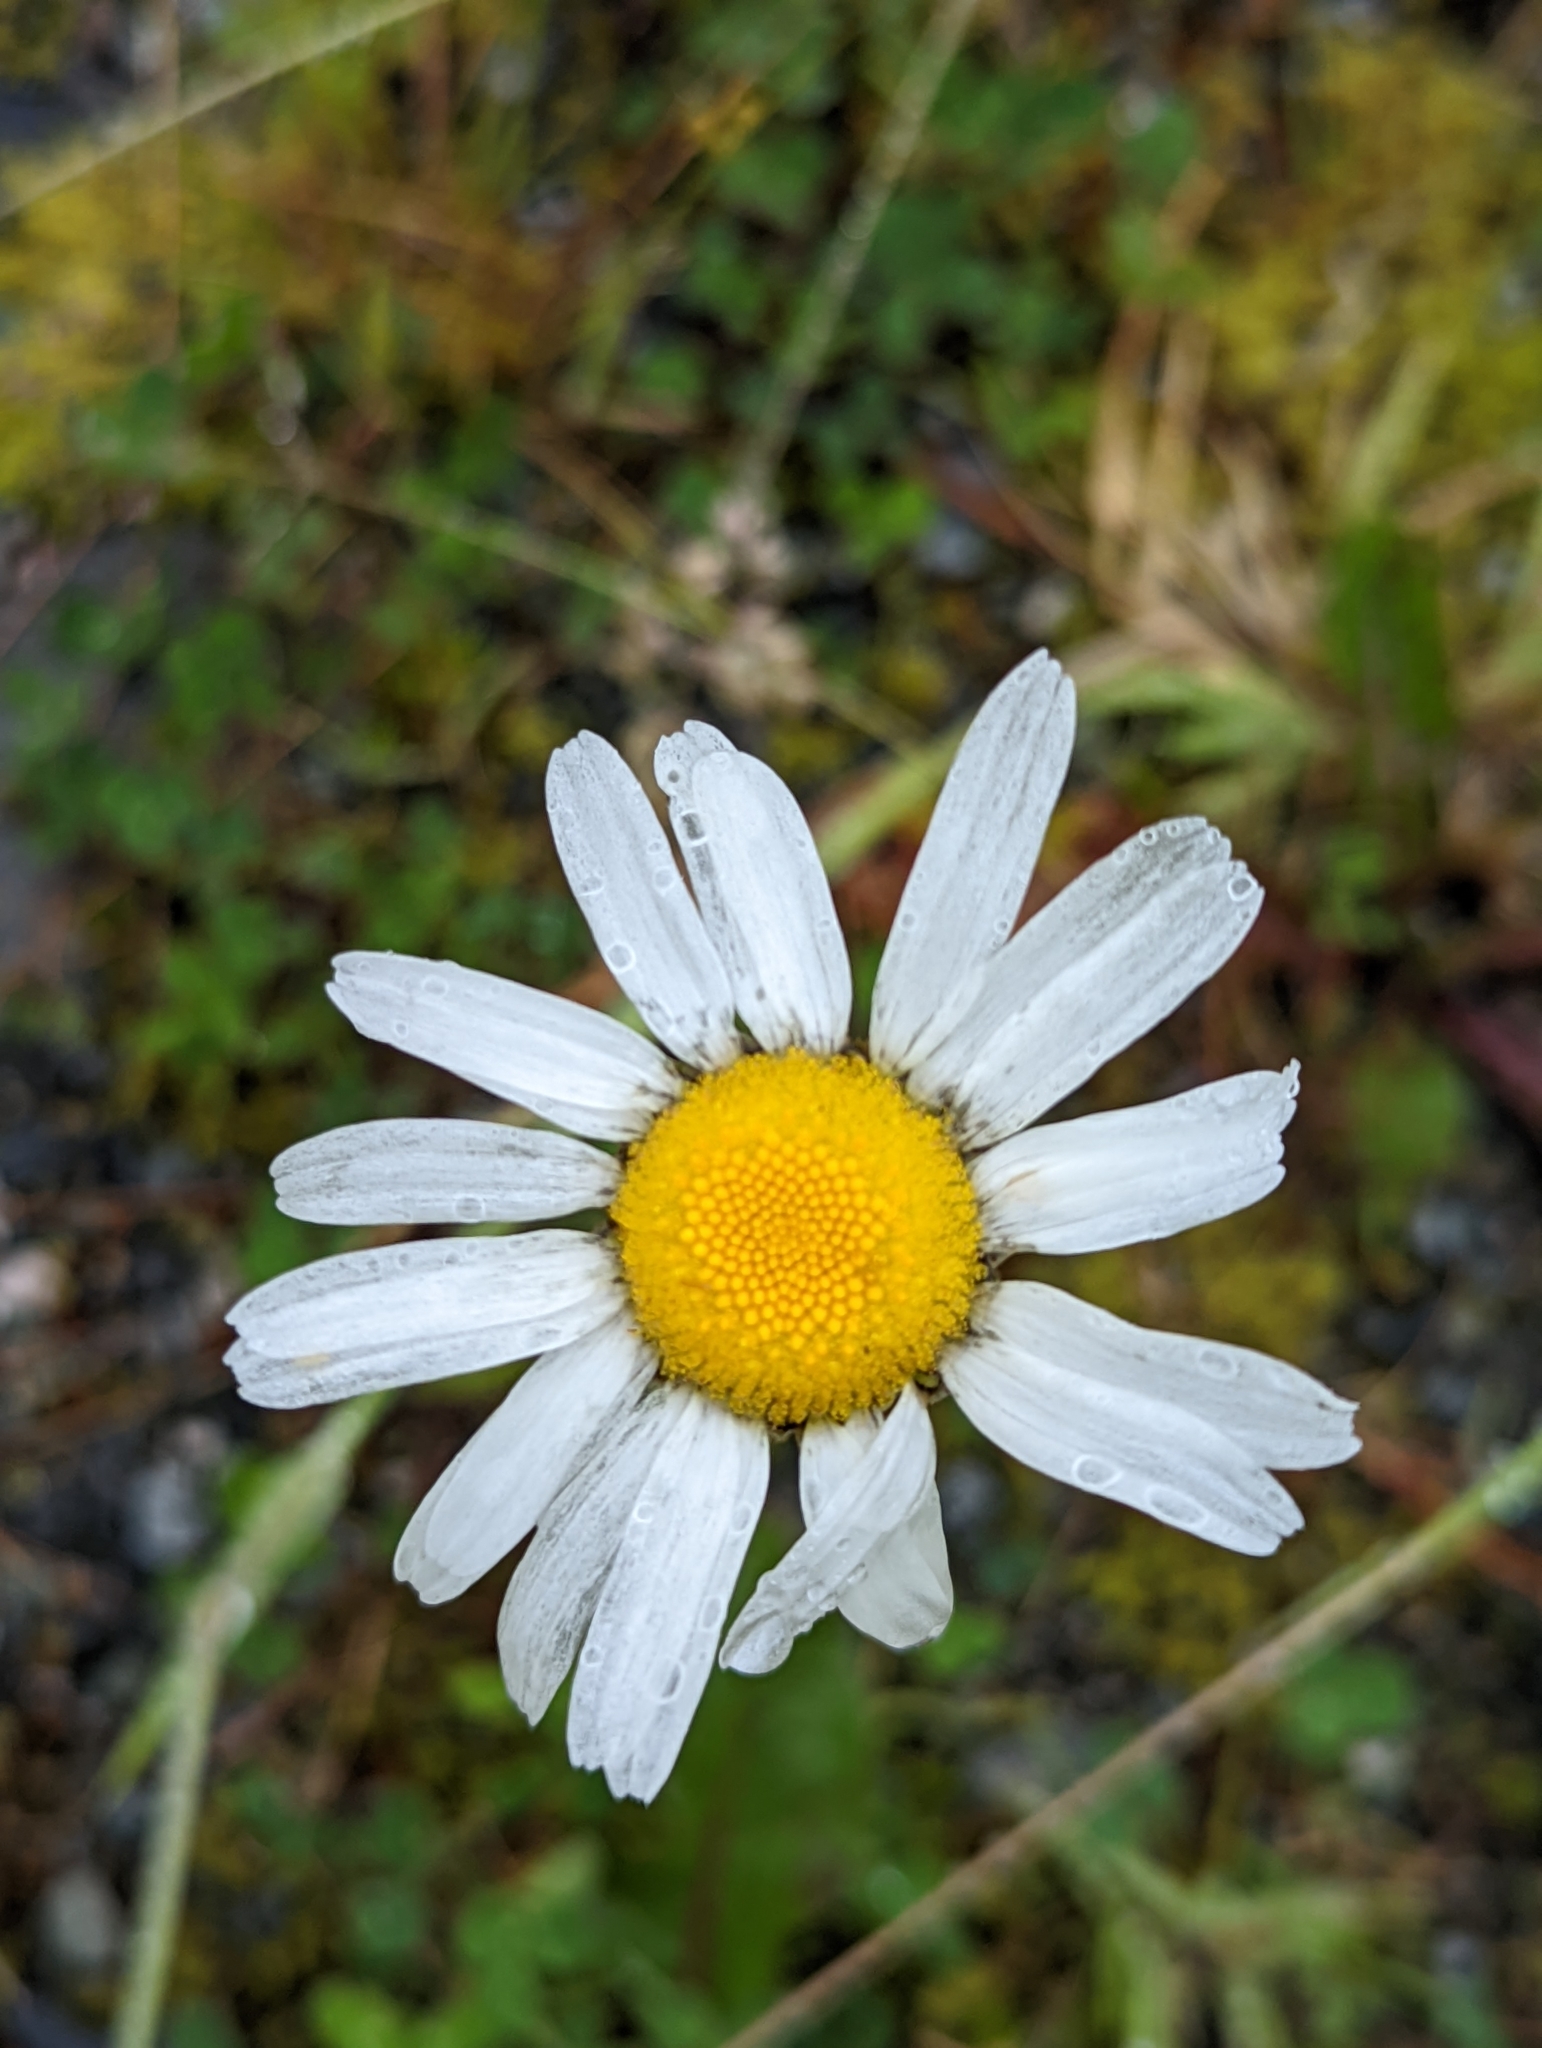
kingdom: Plantae
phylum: Tracheophyta
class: Magnoliopsida
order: Asterales
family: Asteraceae
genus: Leucanthemum
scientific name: Leucanthemum vulgare
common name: Oxeye daisy
